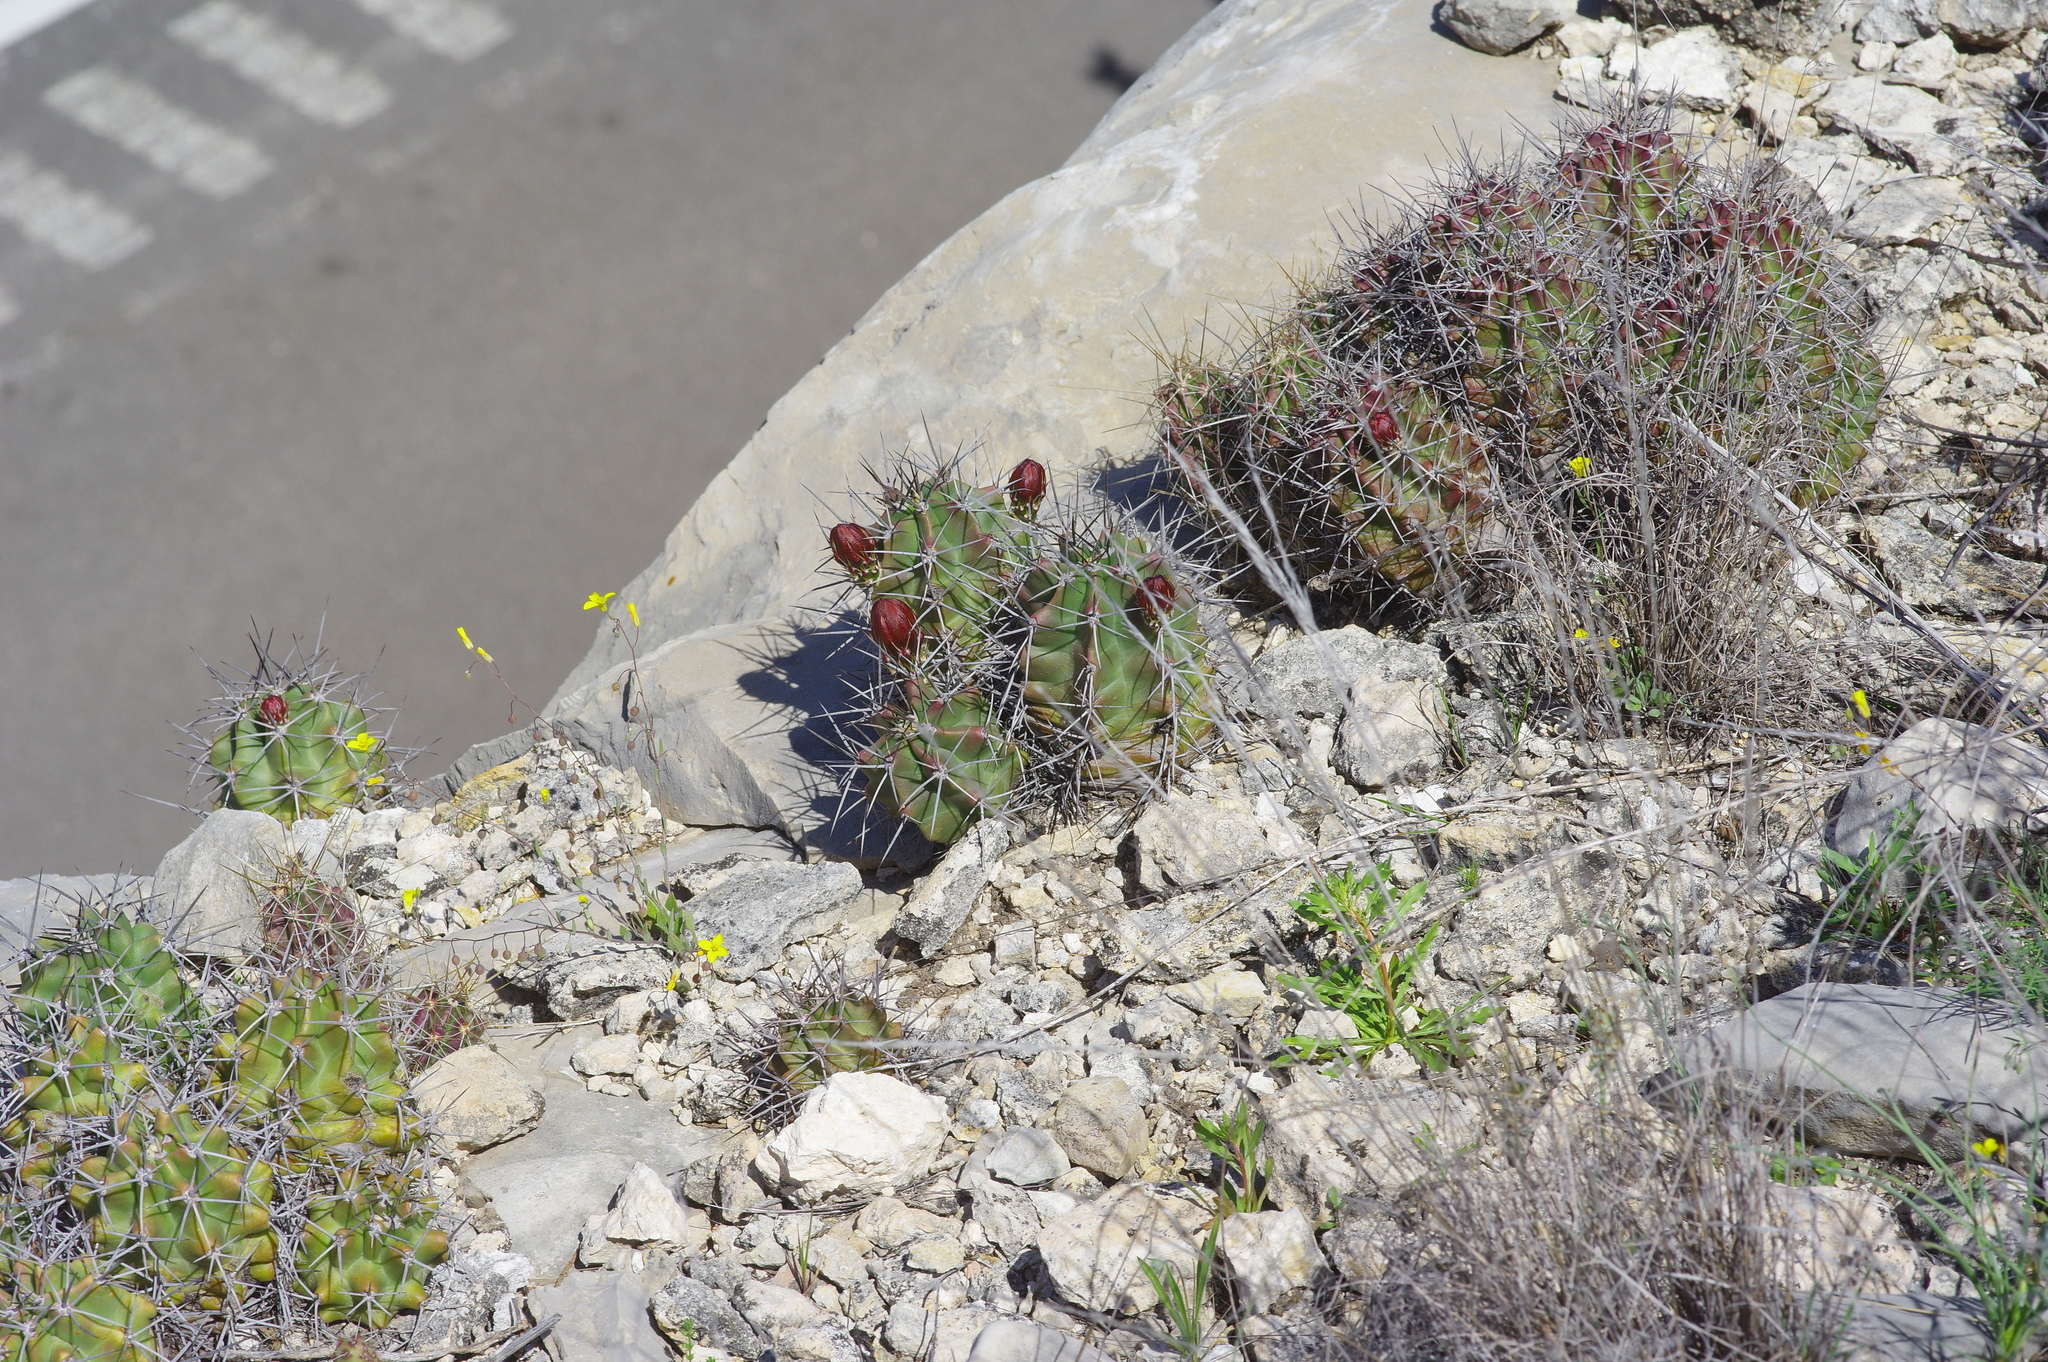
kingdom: Plantae
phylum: Tracheophyta
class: Magnoliopsida
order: Caryophyllales
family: Cactaceae
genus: Echinocereus
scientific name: Echinocereus coccineus
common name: Scarlet hedgehog cactus
